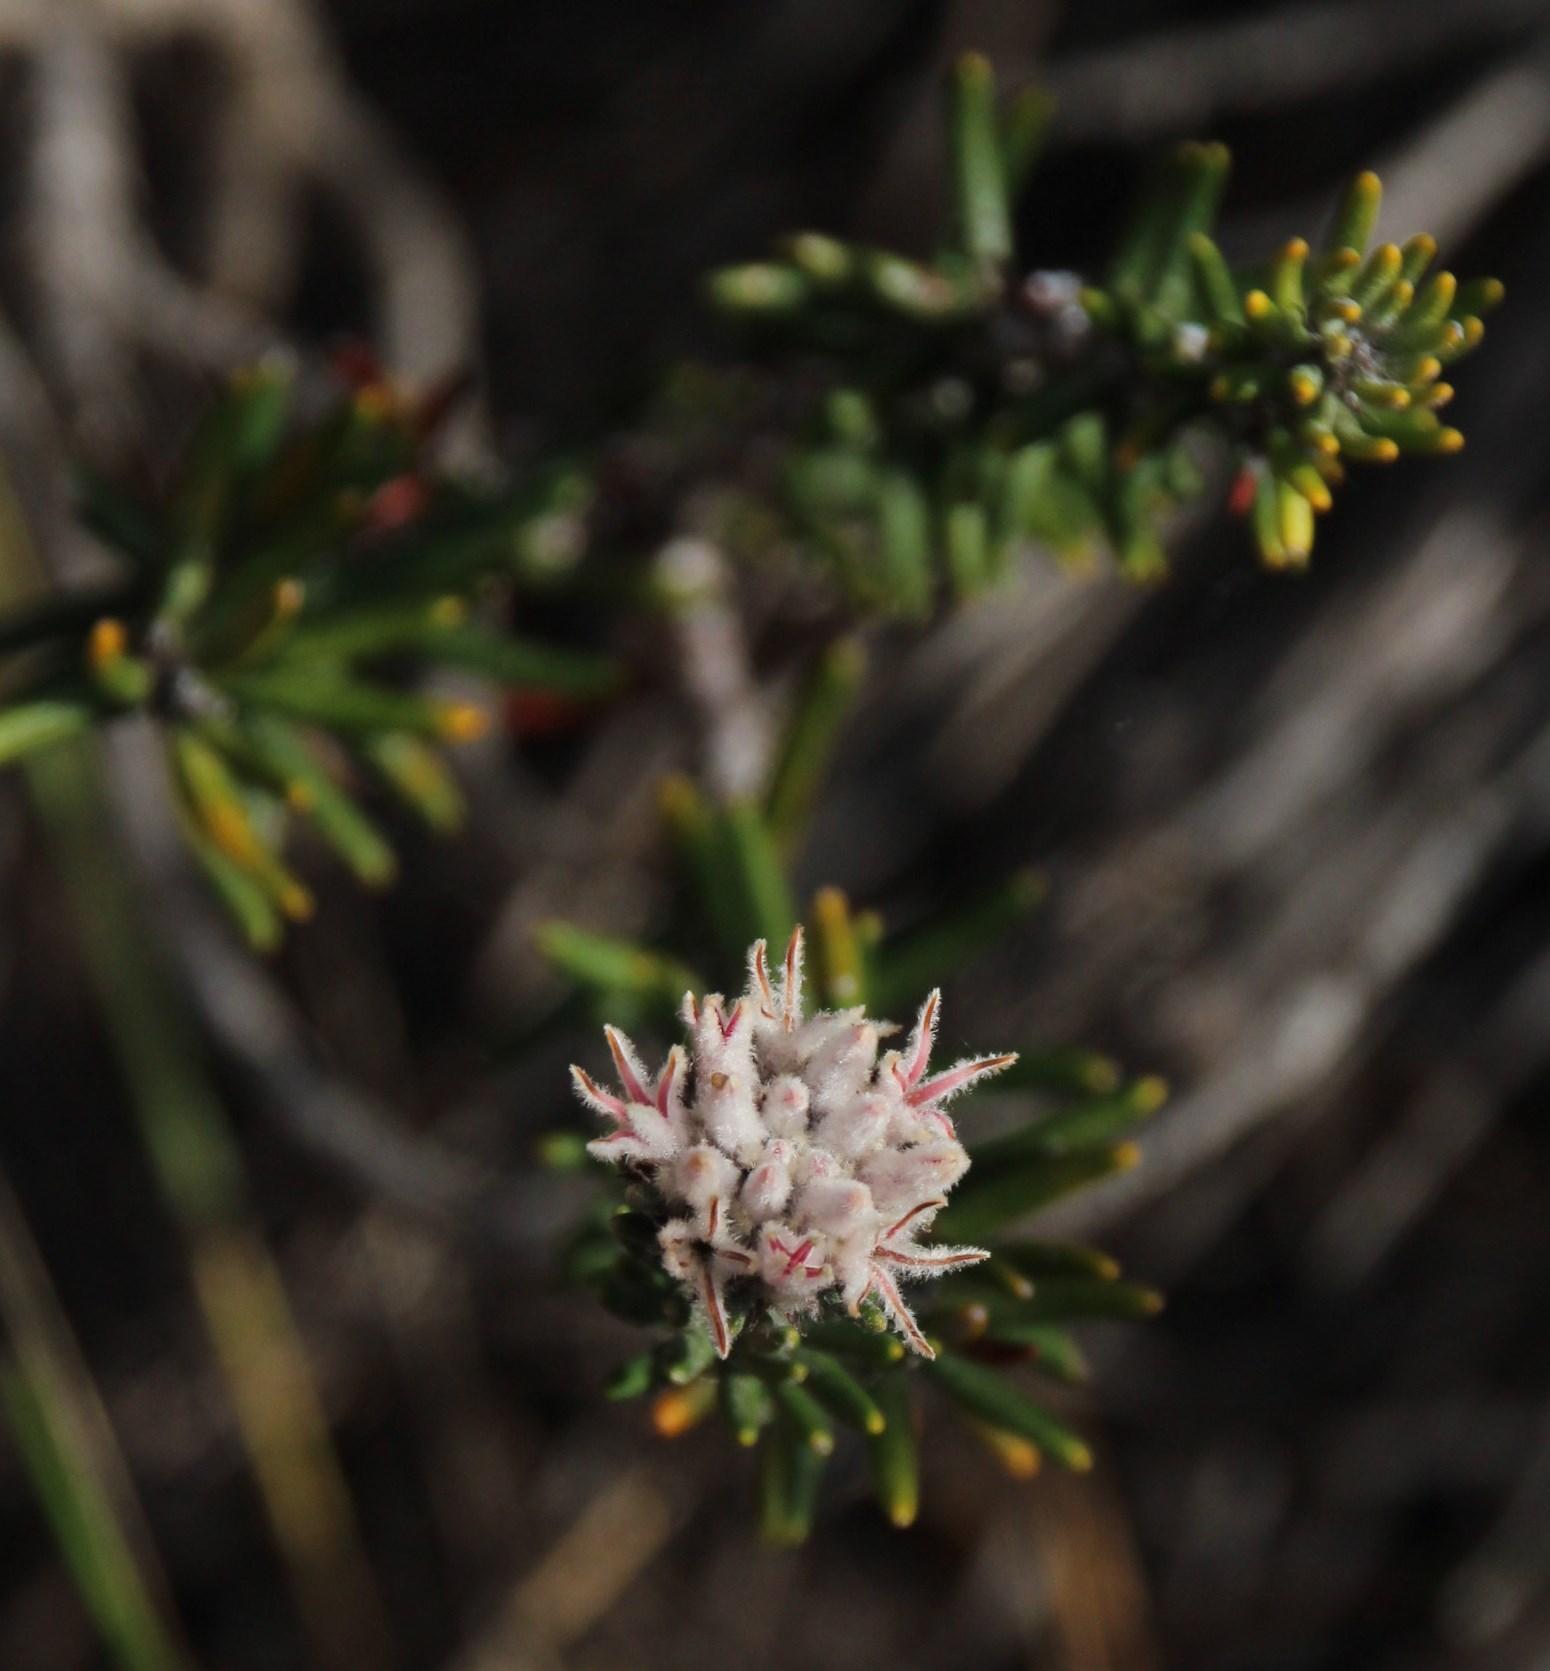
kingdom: Plantae
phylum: Tracheophyta
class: Magnoliopsida
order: Rosales
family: Rhamnaceae
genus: Trichocephalus
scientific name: Trichocephalus stipularis
